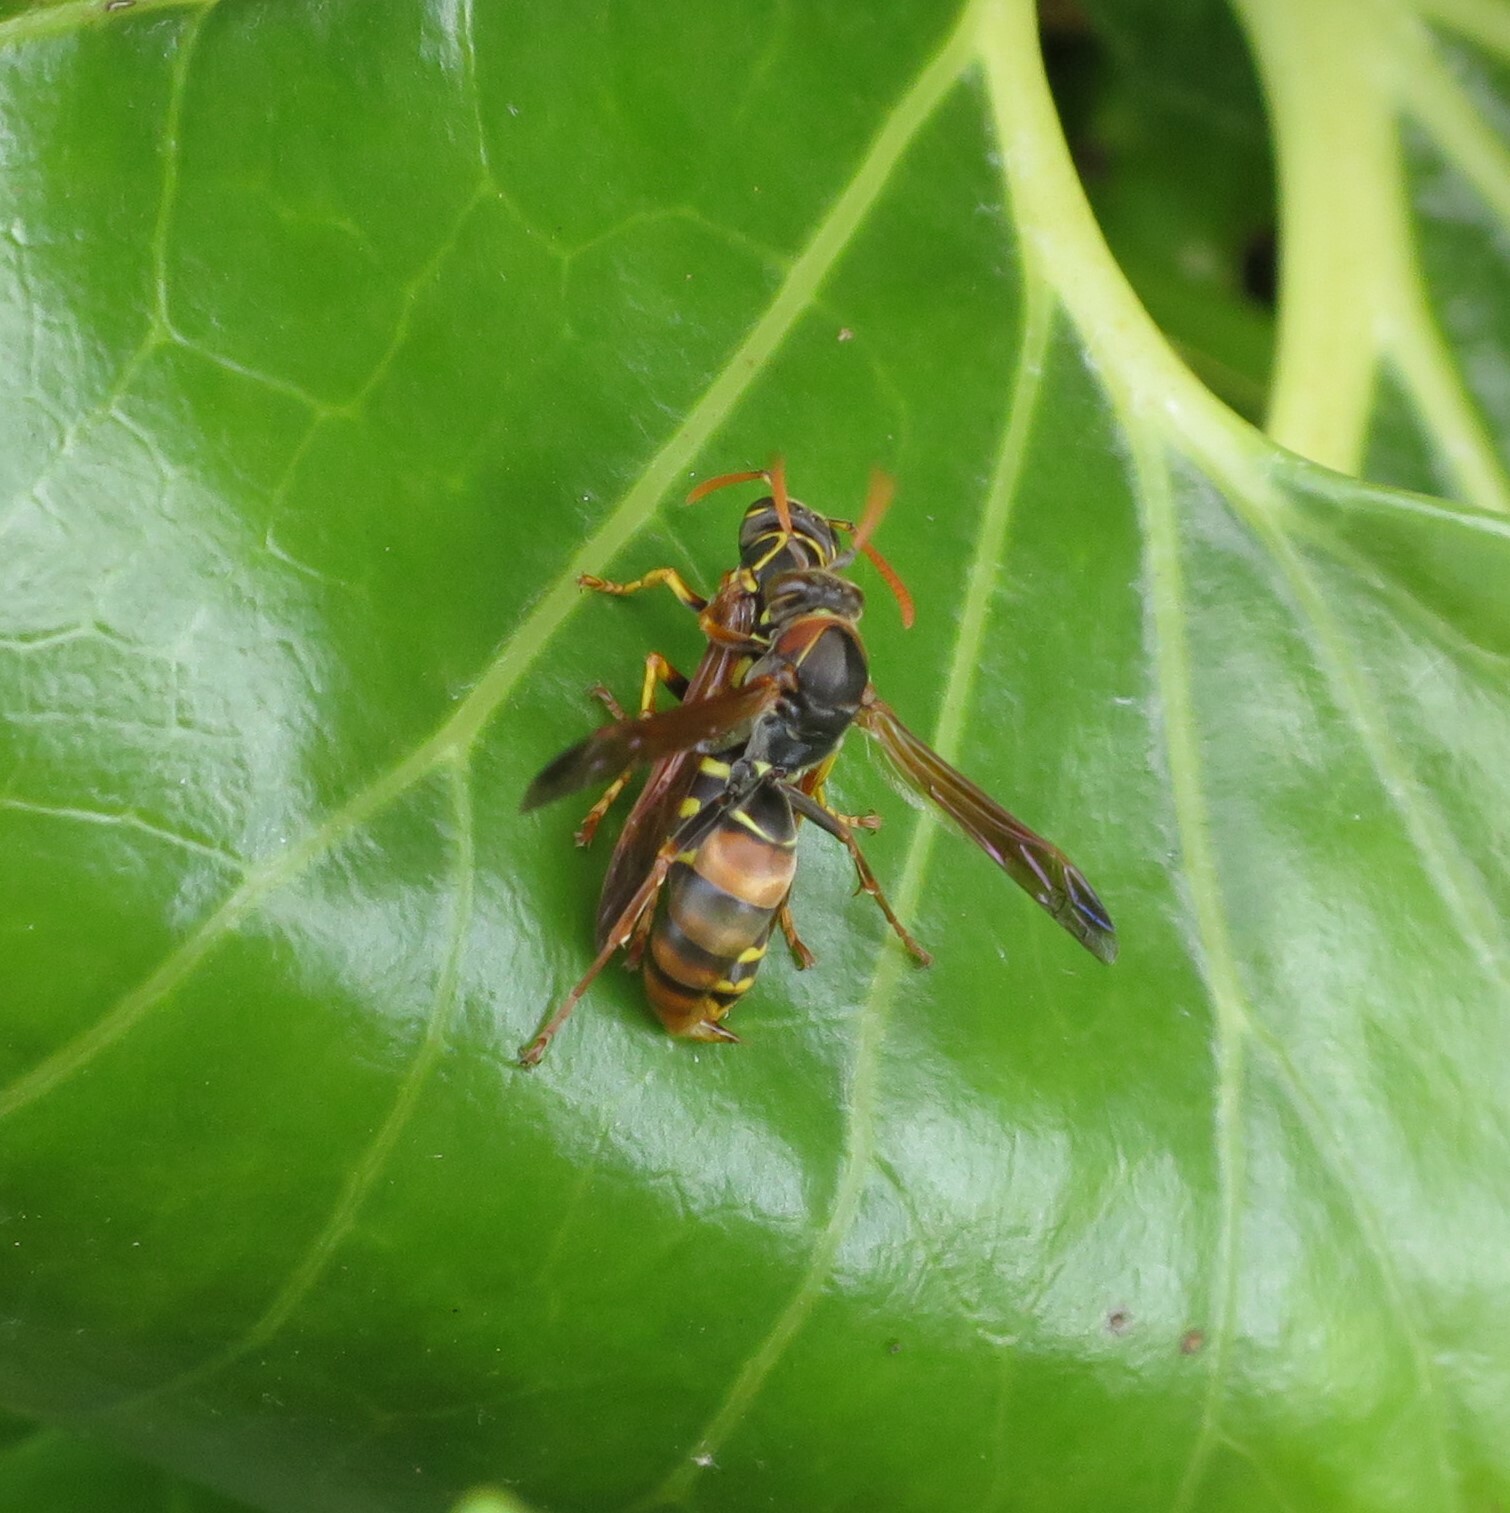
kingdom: Animalia
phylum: Arthropoda
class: Insecta
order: Hymenoptera
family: Eumenidae
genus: Polistes
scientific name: Polistes humilis
